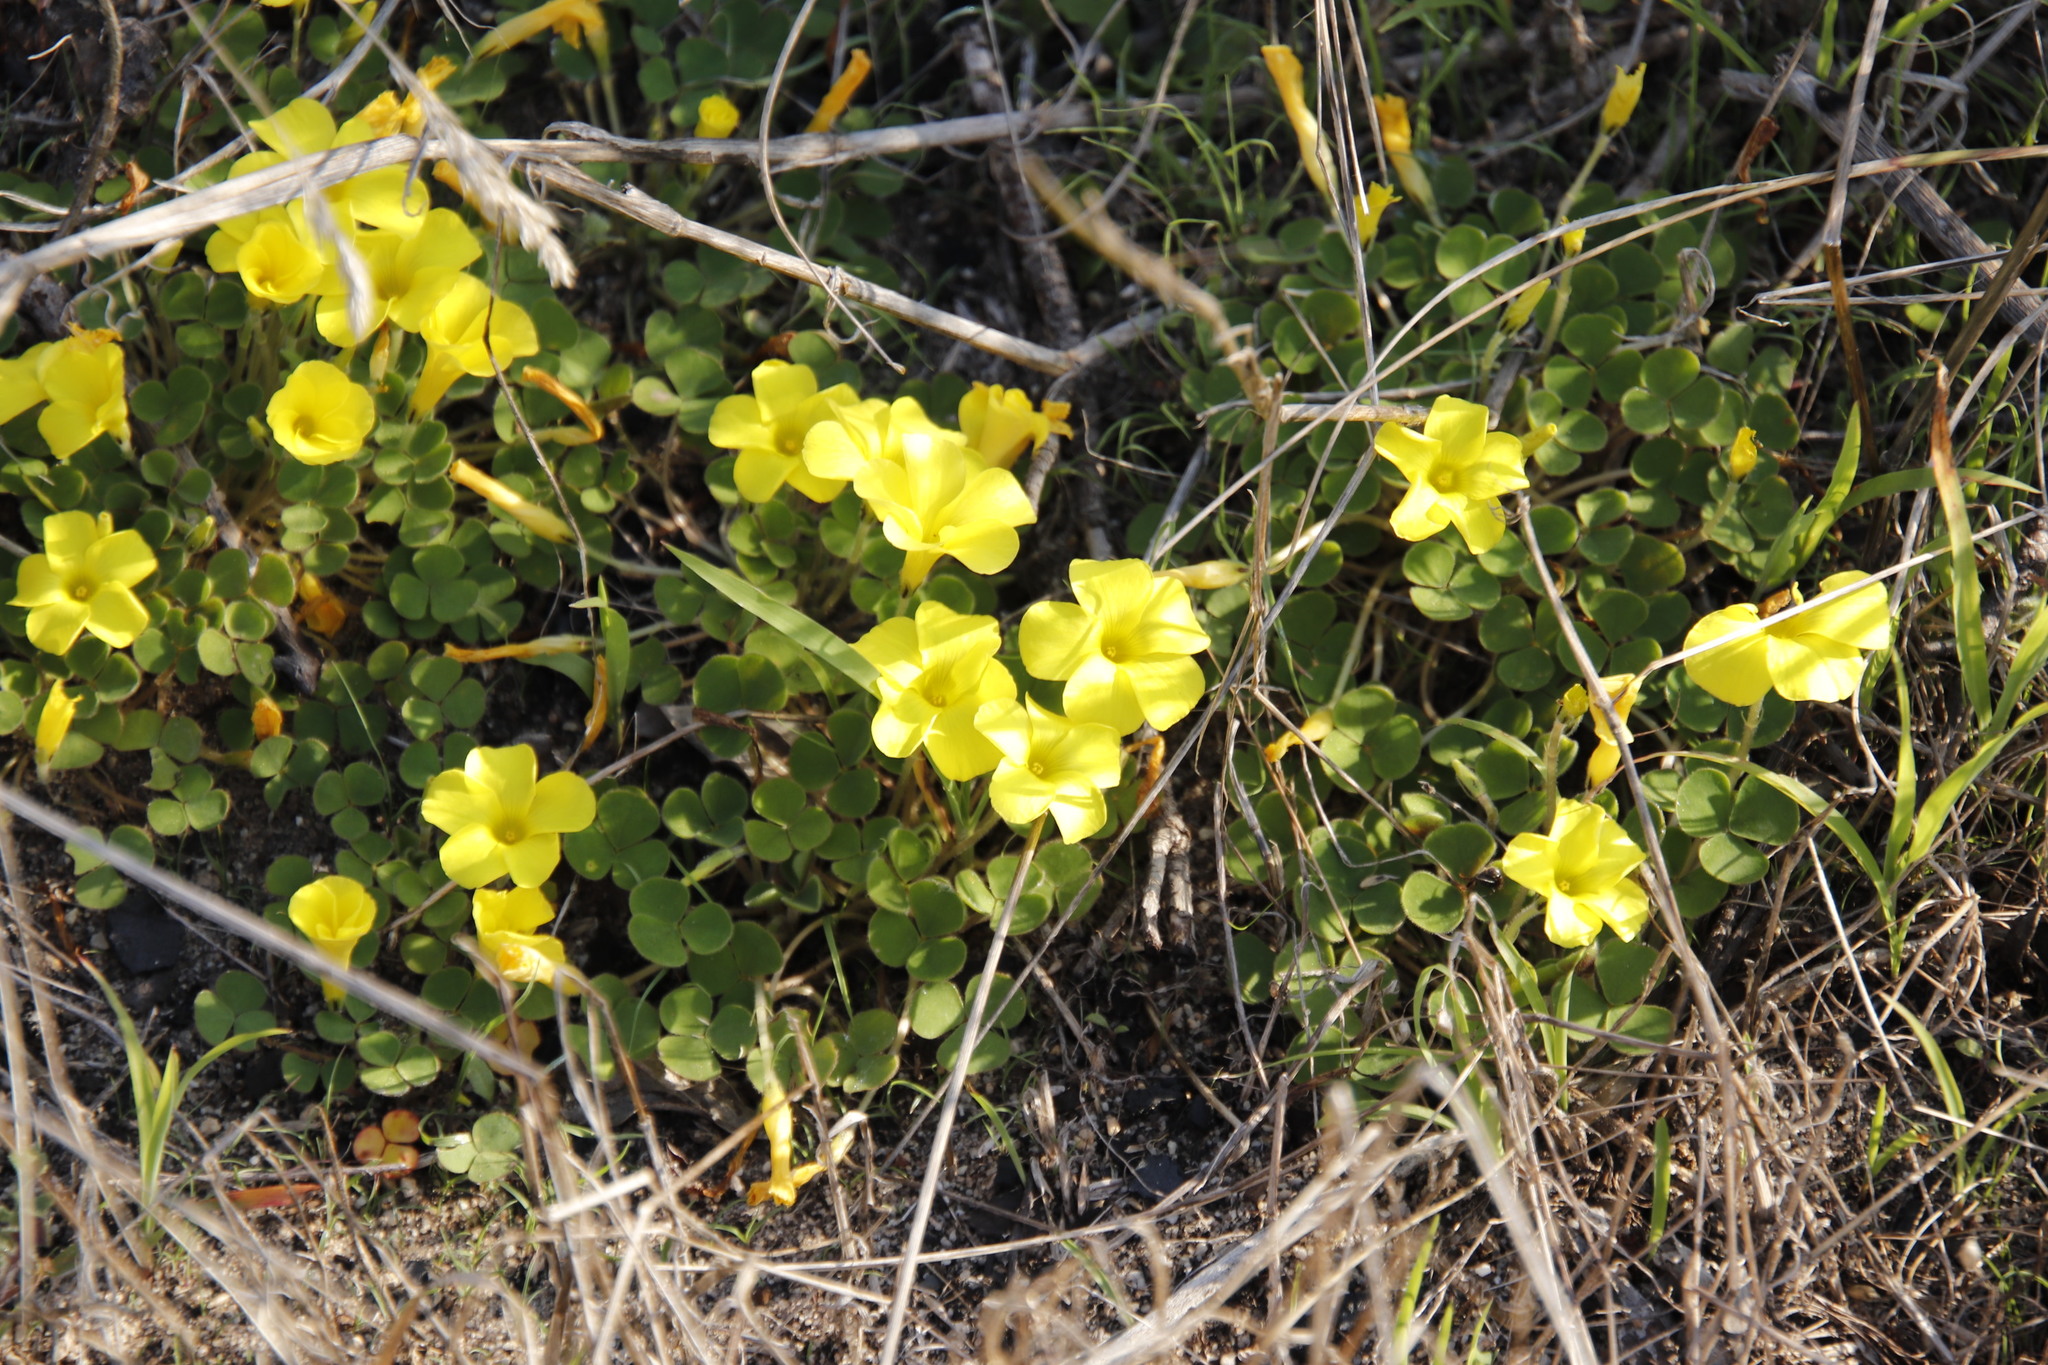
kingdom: Plantae
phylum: Tracheophyta
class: Magnoliopsida
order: Oxalidales
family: Oxalidaceae
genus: Oxalis
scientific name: Oxalis luteola
